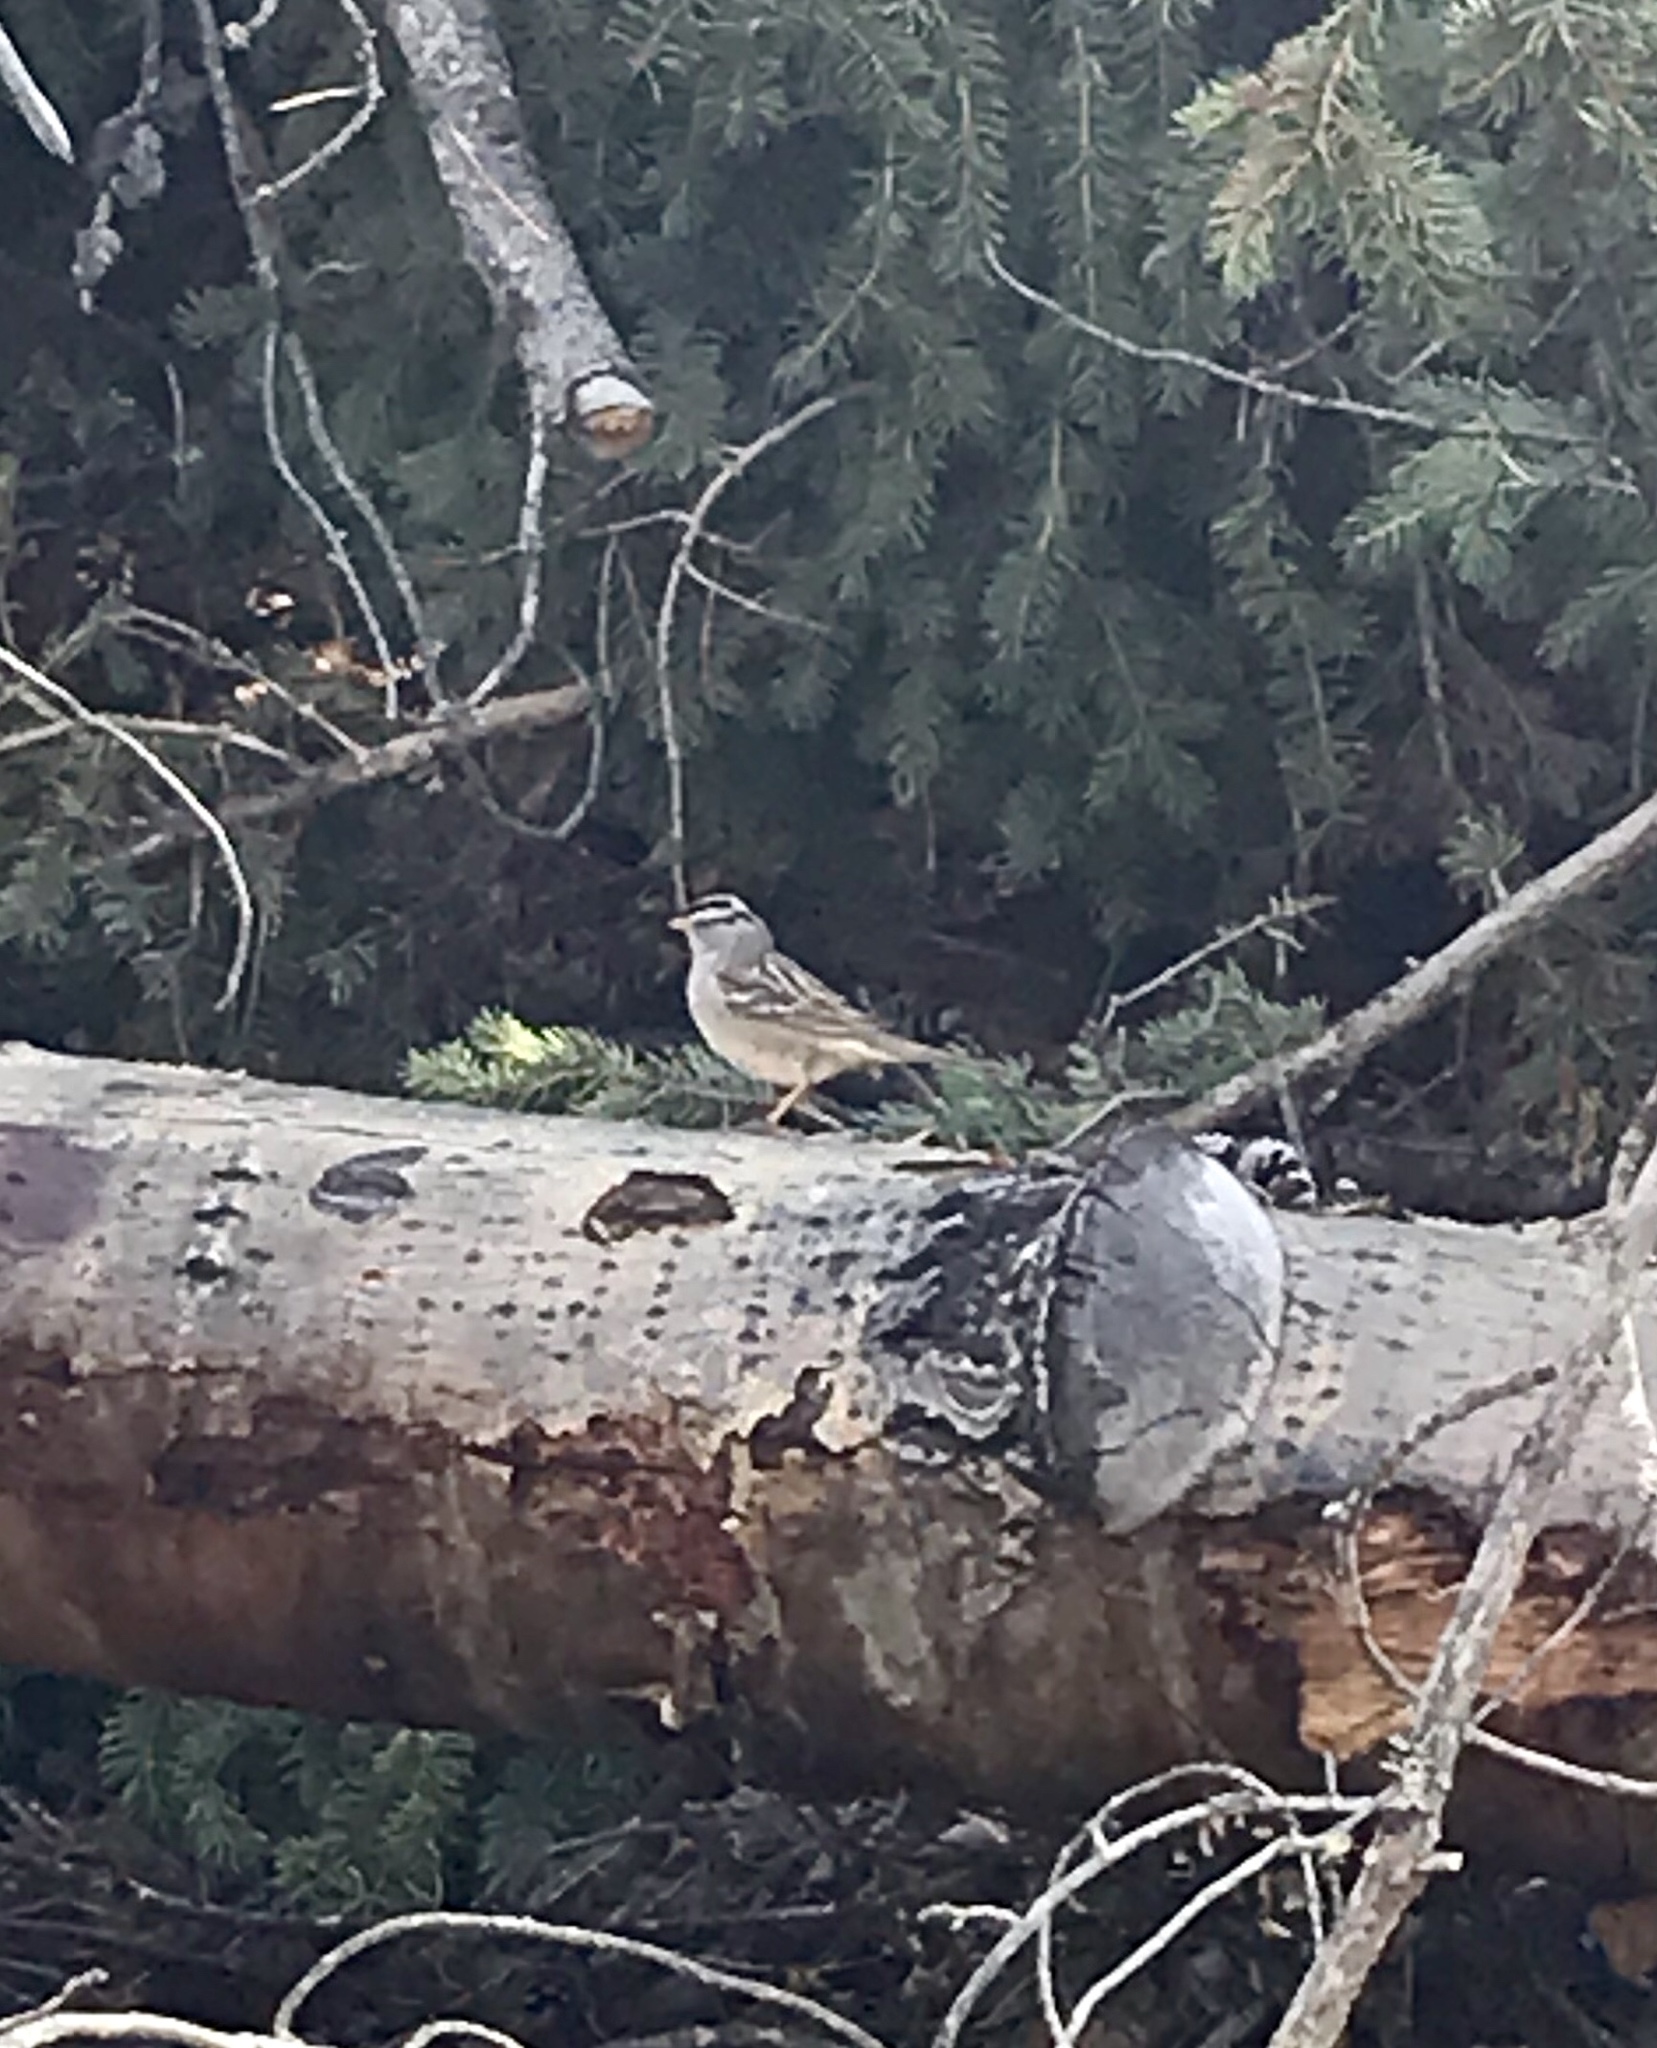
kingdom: Animalia
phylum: Chordata
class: Aves
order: Passeriformes
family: Passerellidae
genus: Zonotrichia
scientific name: Zonotrichia leucophrys
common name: White-crowned sparrow
